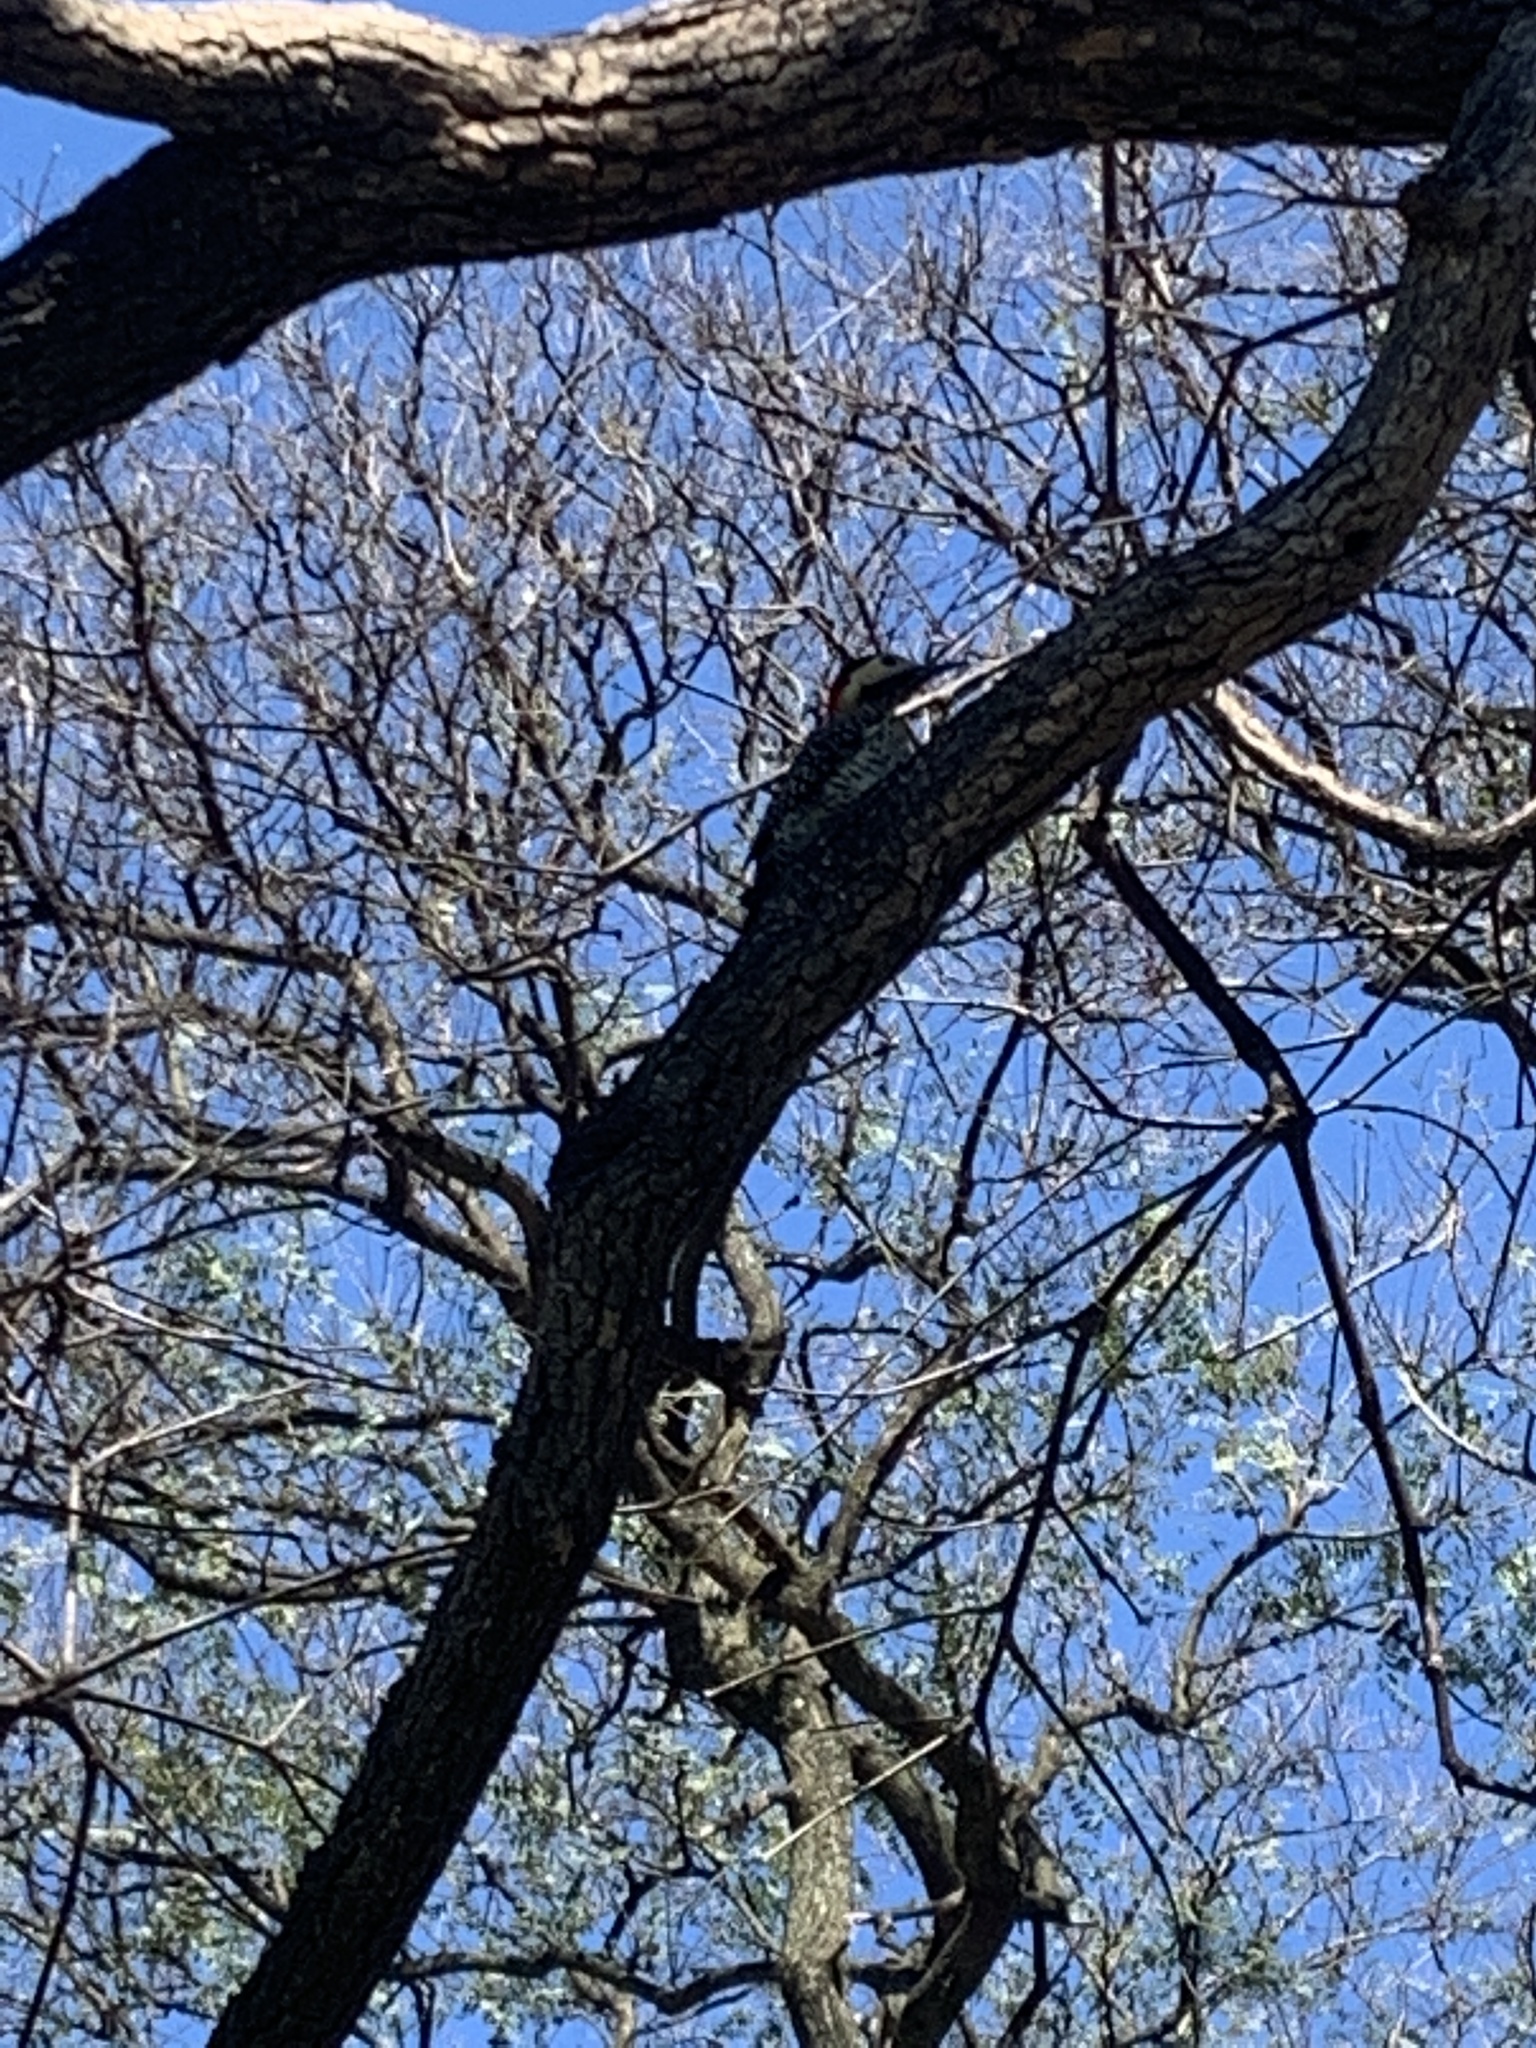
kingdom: Animalia
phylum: Chordata
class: Aves
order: Piciformes
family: Picidae
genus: Colaptes
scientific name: Colaptes melanochloros
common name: Green-barred woodpecker
